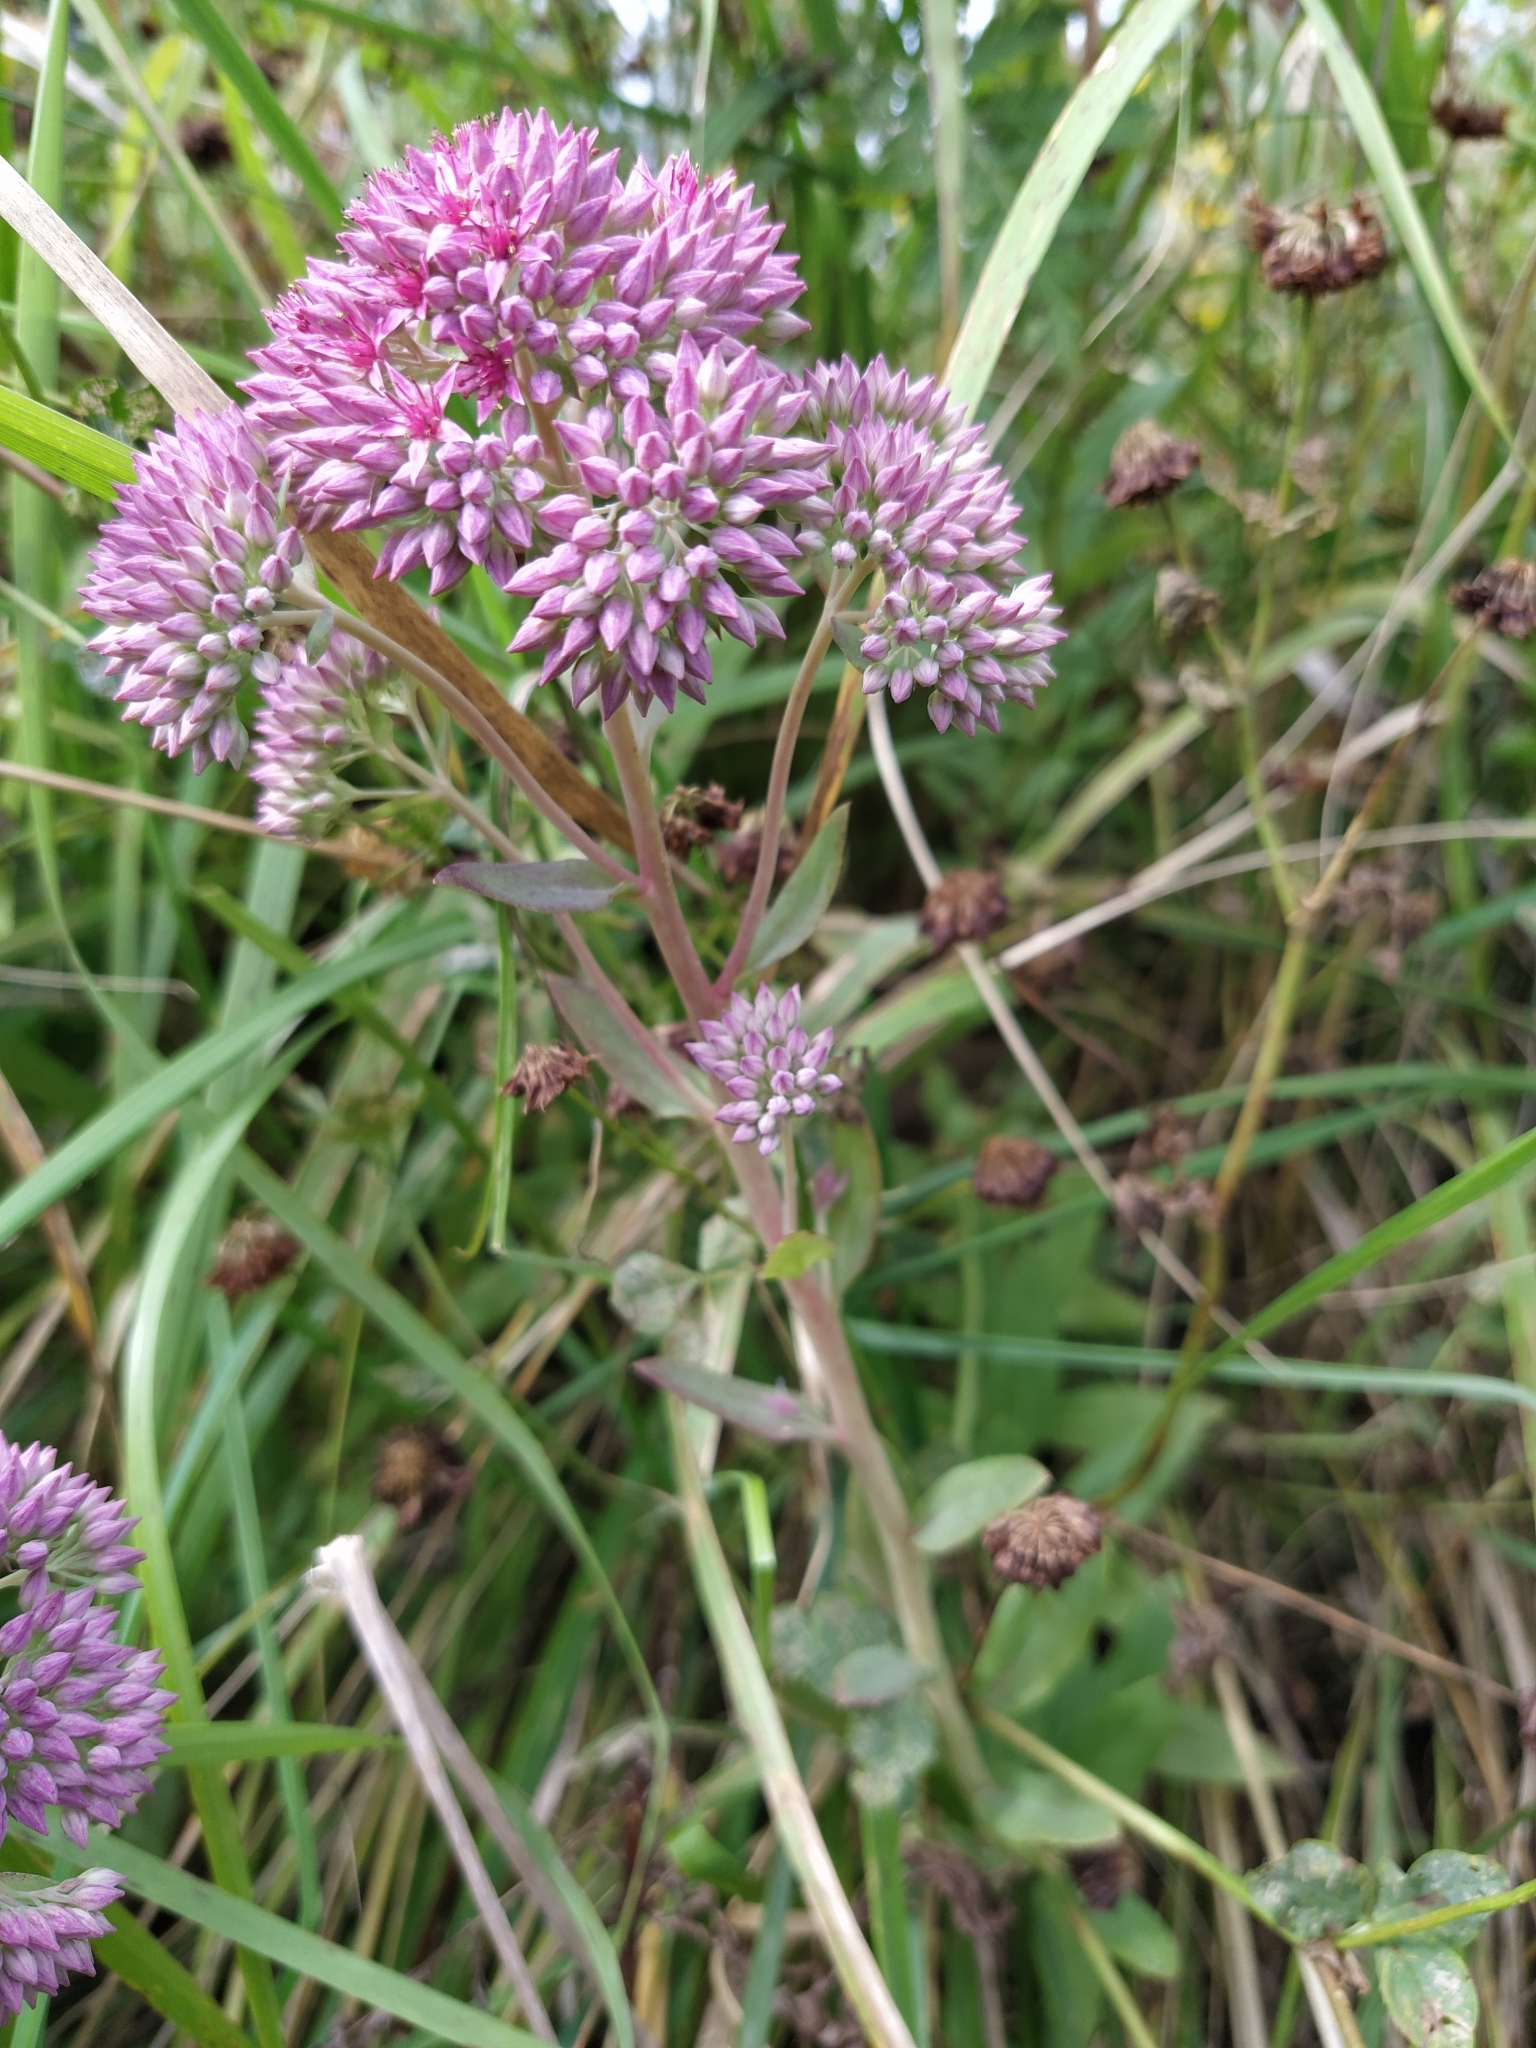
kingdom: Plantae
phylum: Tracheophyta
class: Magnoliopsida
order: Saxifragales
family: Crassulaceae
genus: Hylotelephium
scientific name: Hylotelephium telephium
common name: Live-forever
